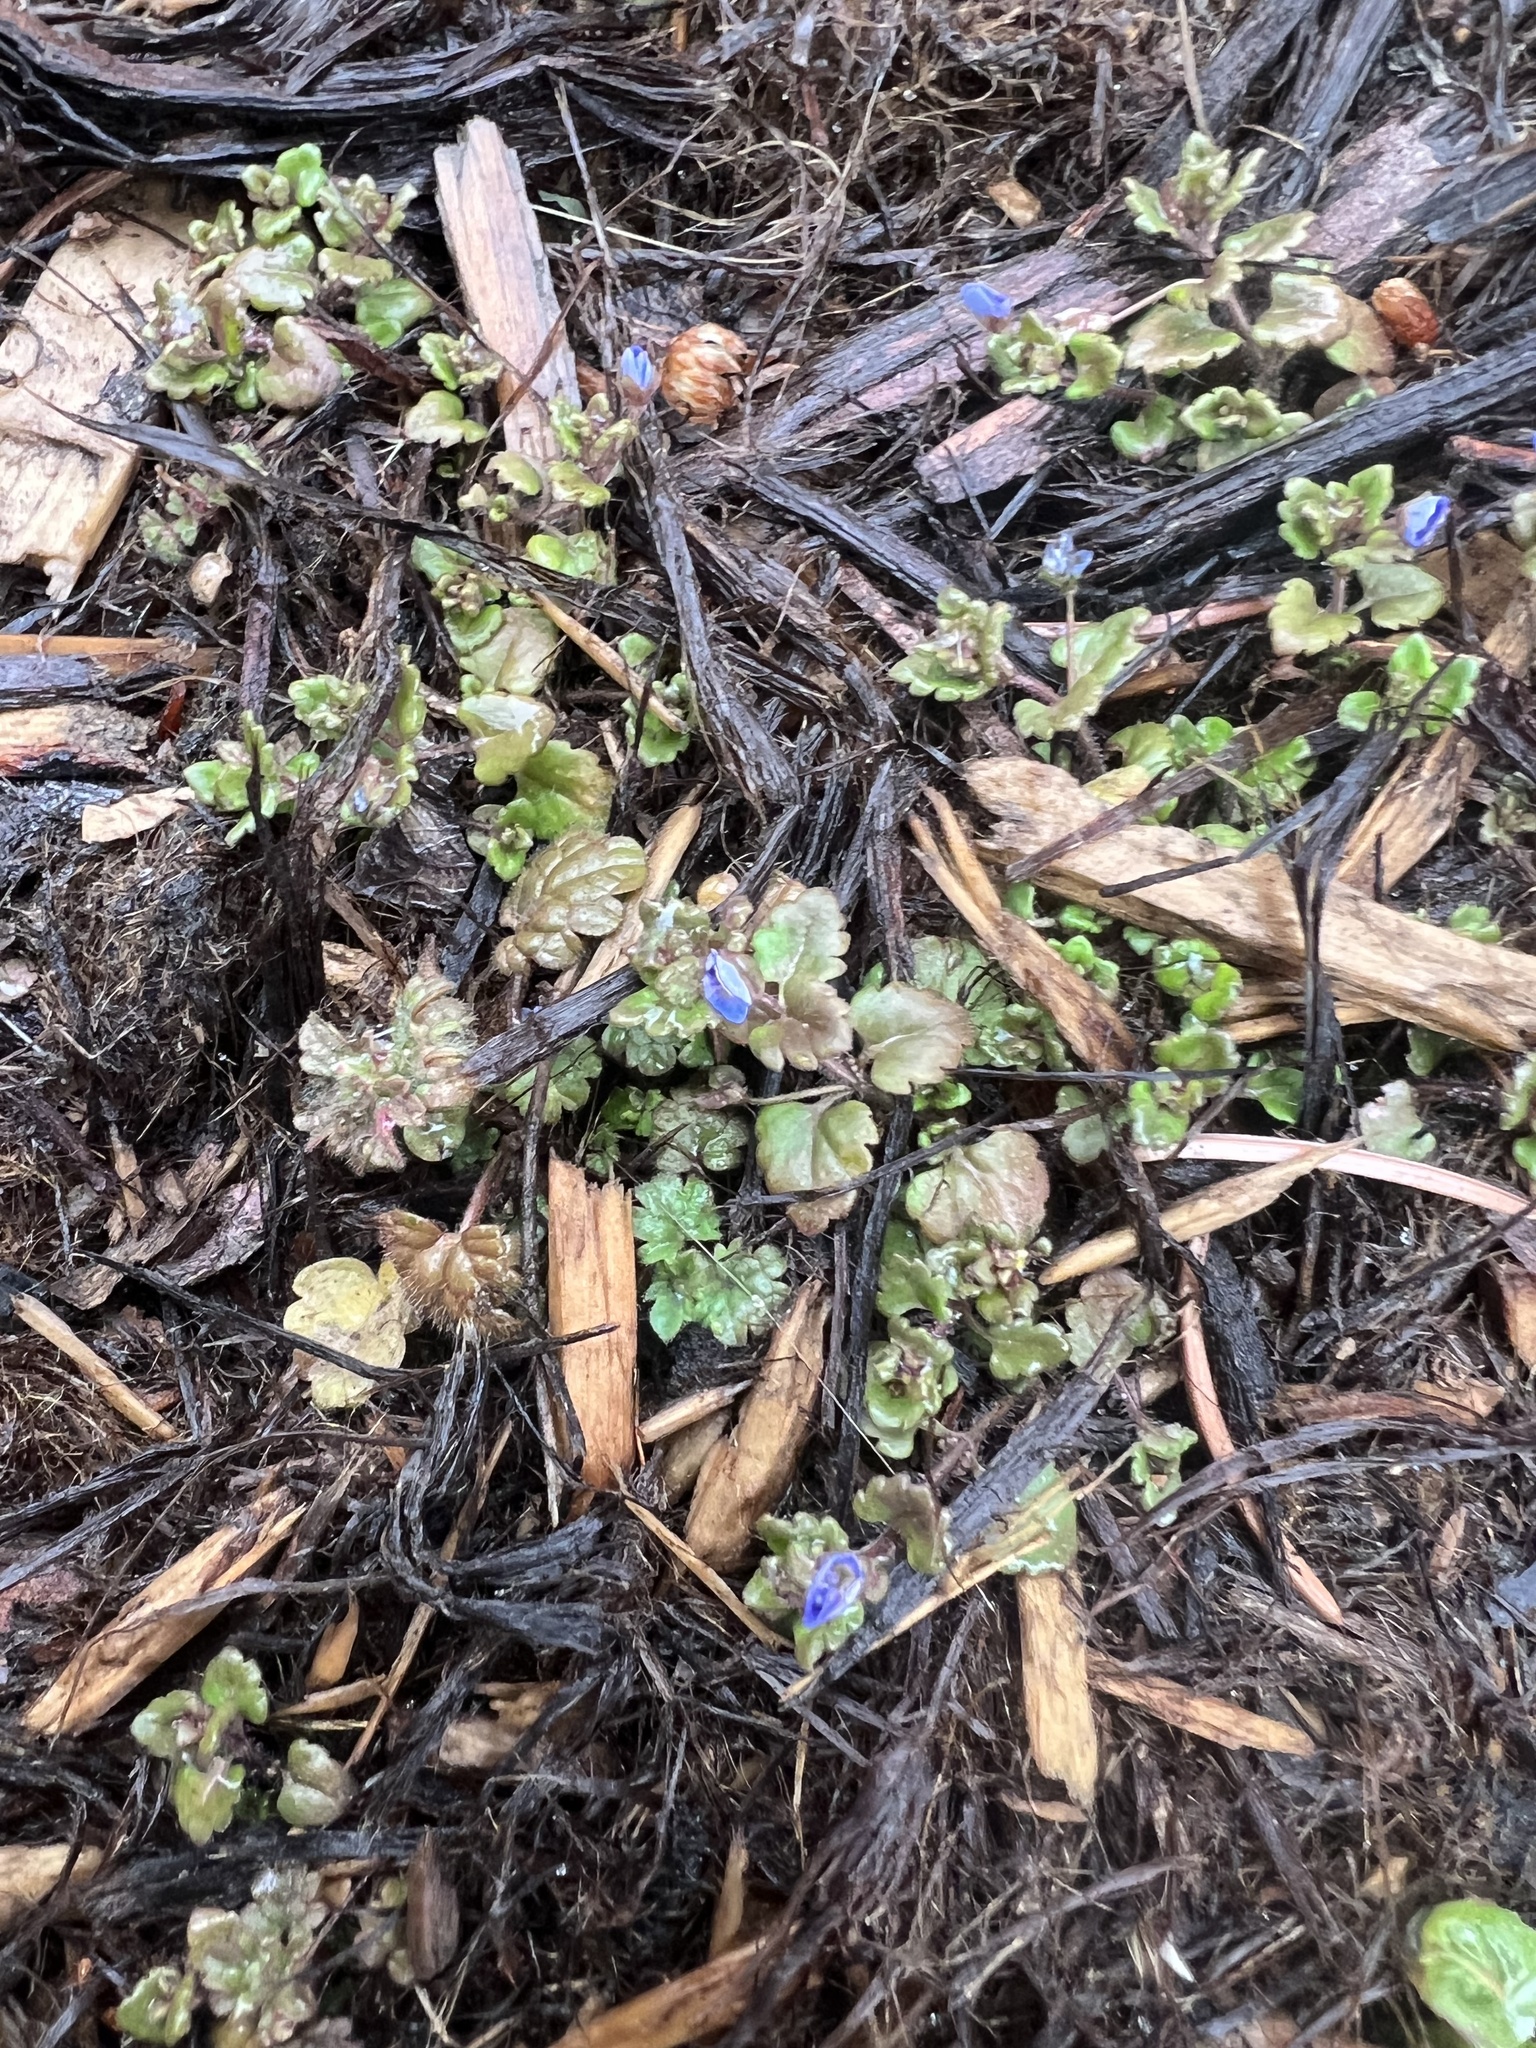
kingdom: Plantae
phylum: Tracheophyta
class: Magnoliopsida
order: Lamiales
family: Plantaginaceae
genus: Veronica
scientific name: Veronica polita
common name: Grey field-speedwell
